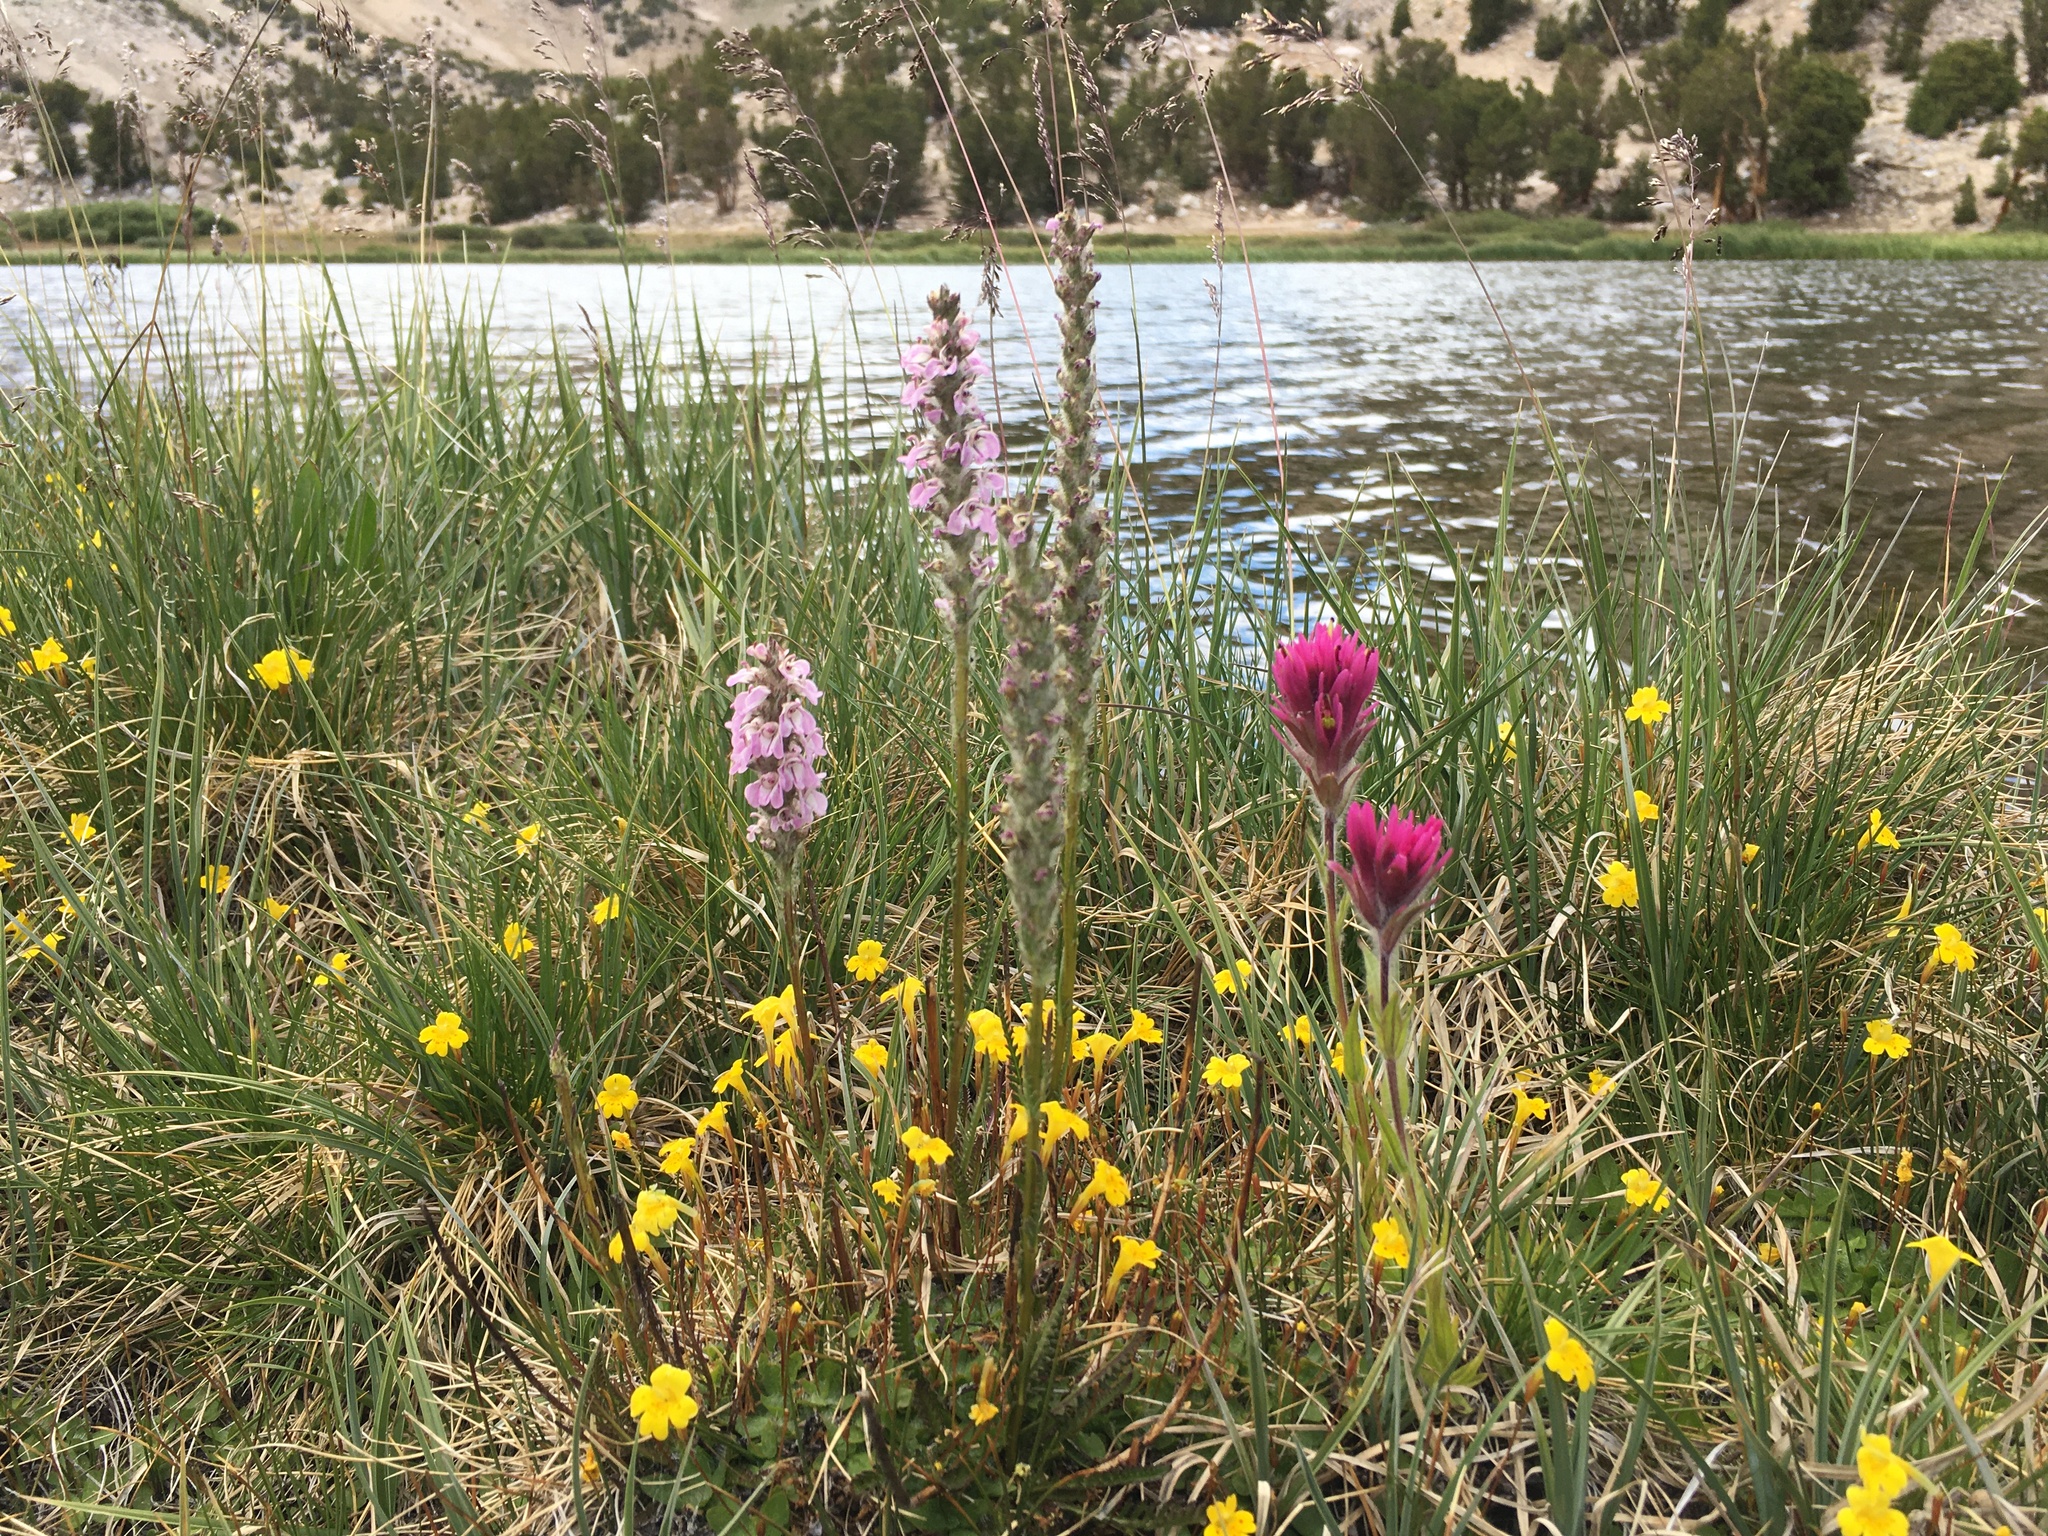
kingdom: Plantae
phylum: Tracheophyta
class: Magnoliopsida
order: Lamiales
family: Orobanchaceae
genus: Castilleja
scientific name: Castilleja lemmonii
